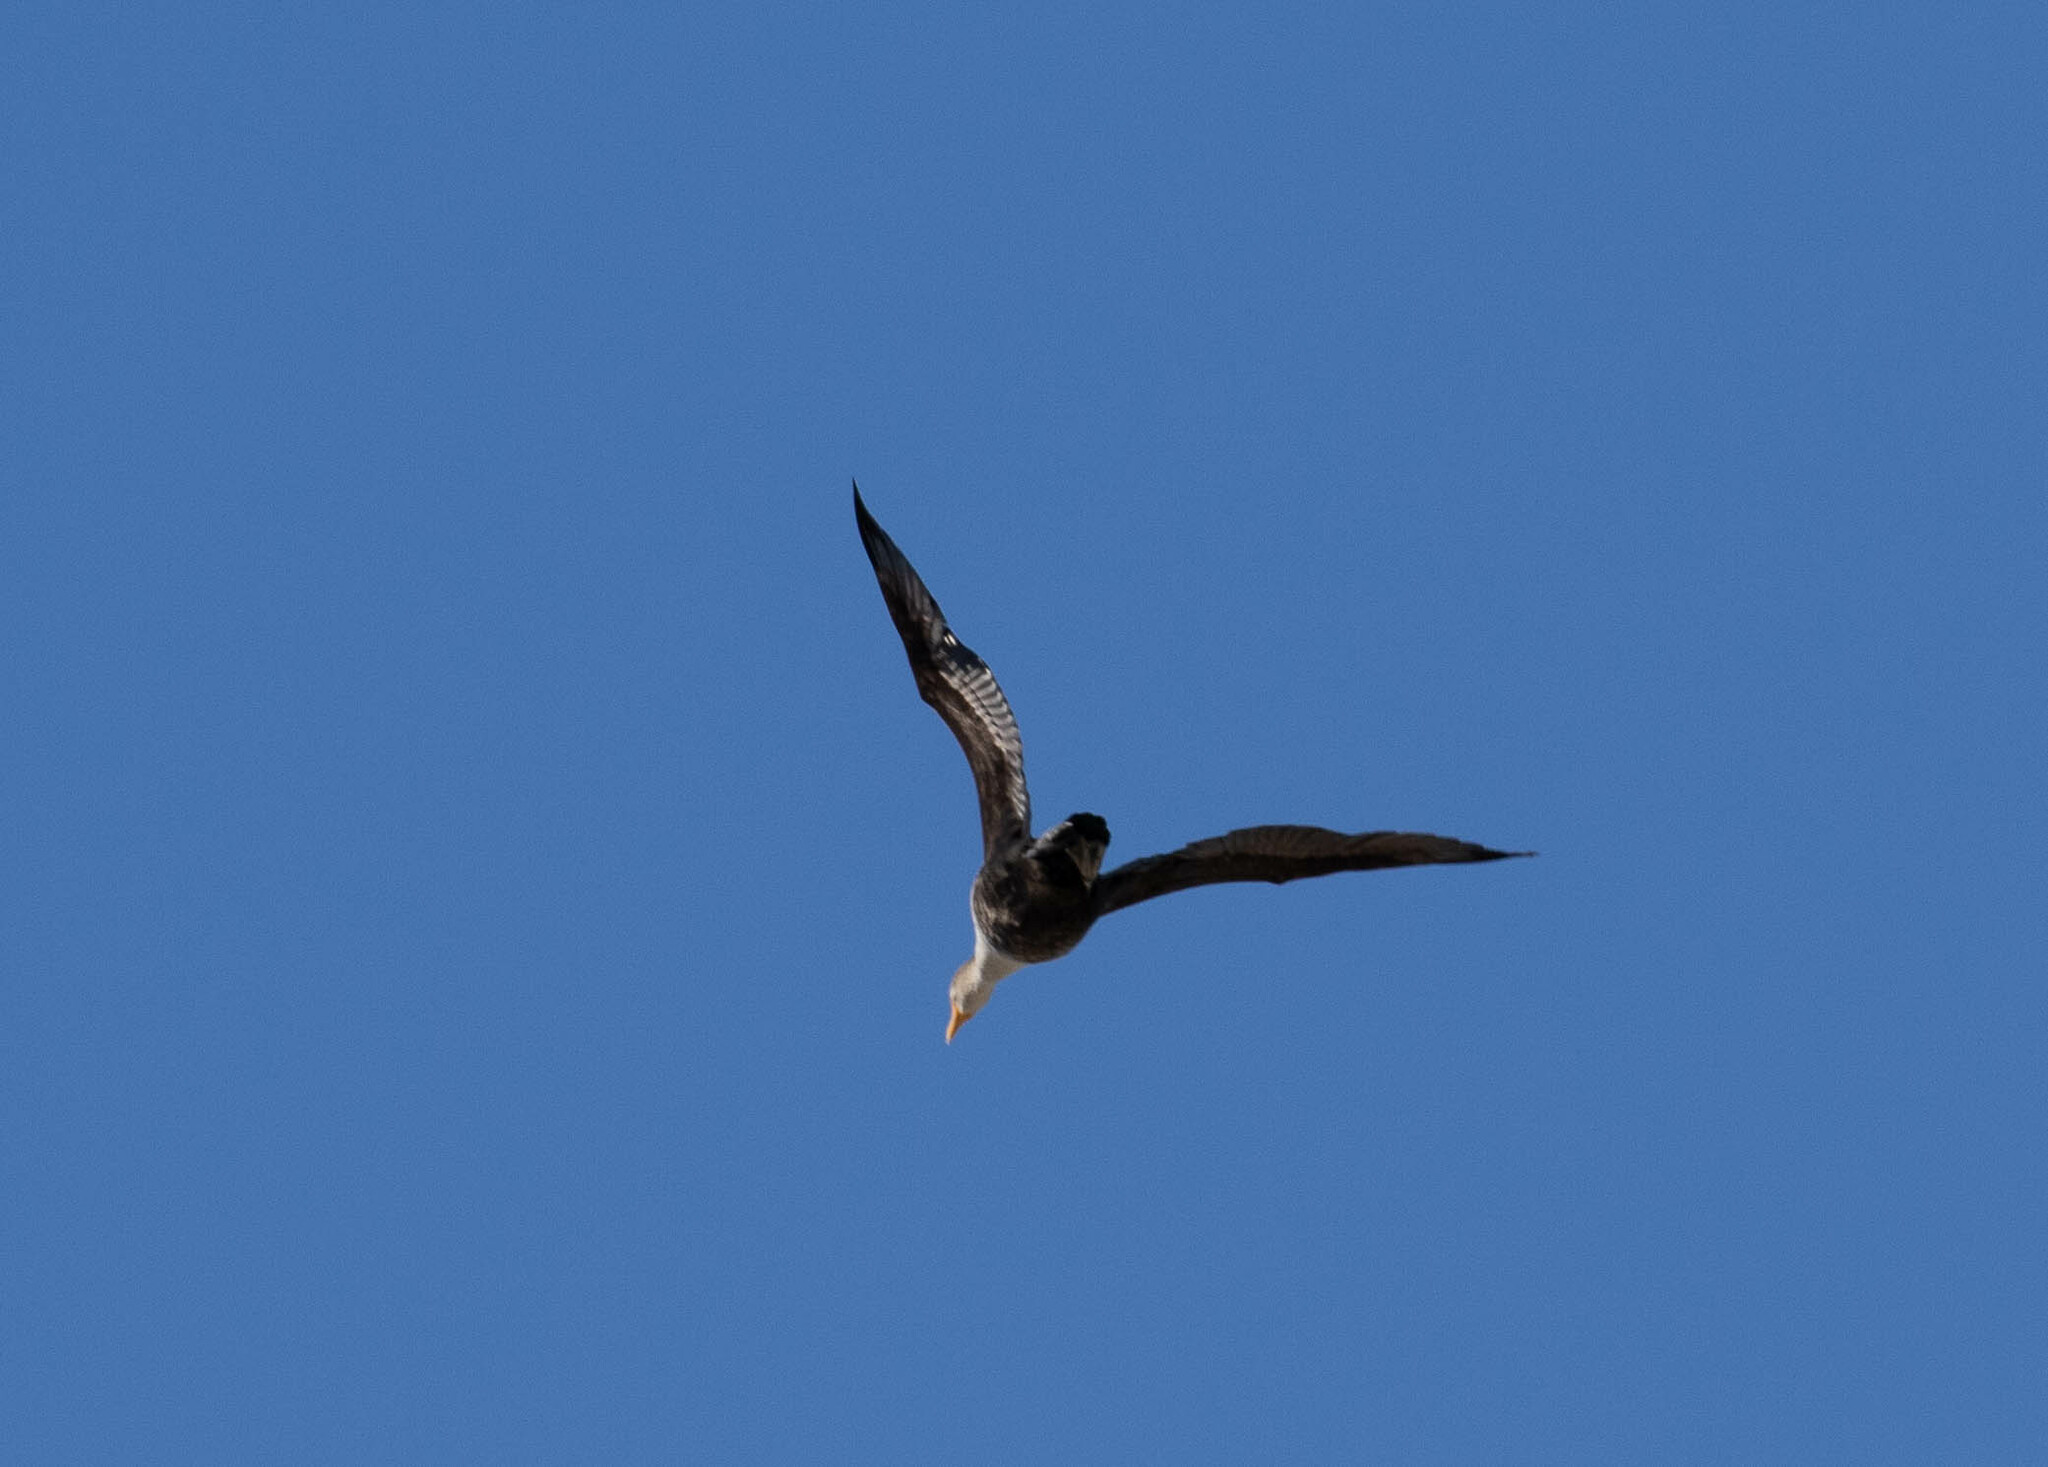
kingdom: Animalia
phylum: Chordata
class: Aves
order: Suliformes
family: Phalacrocoracidae
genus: Phalacrocorax
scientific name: Phalacrocorax auritus
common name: Double-crested cormorant
